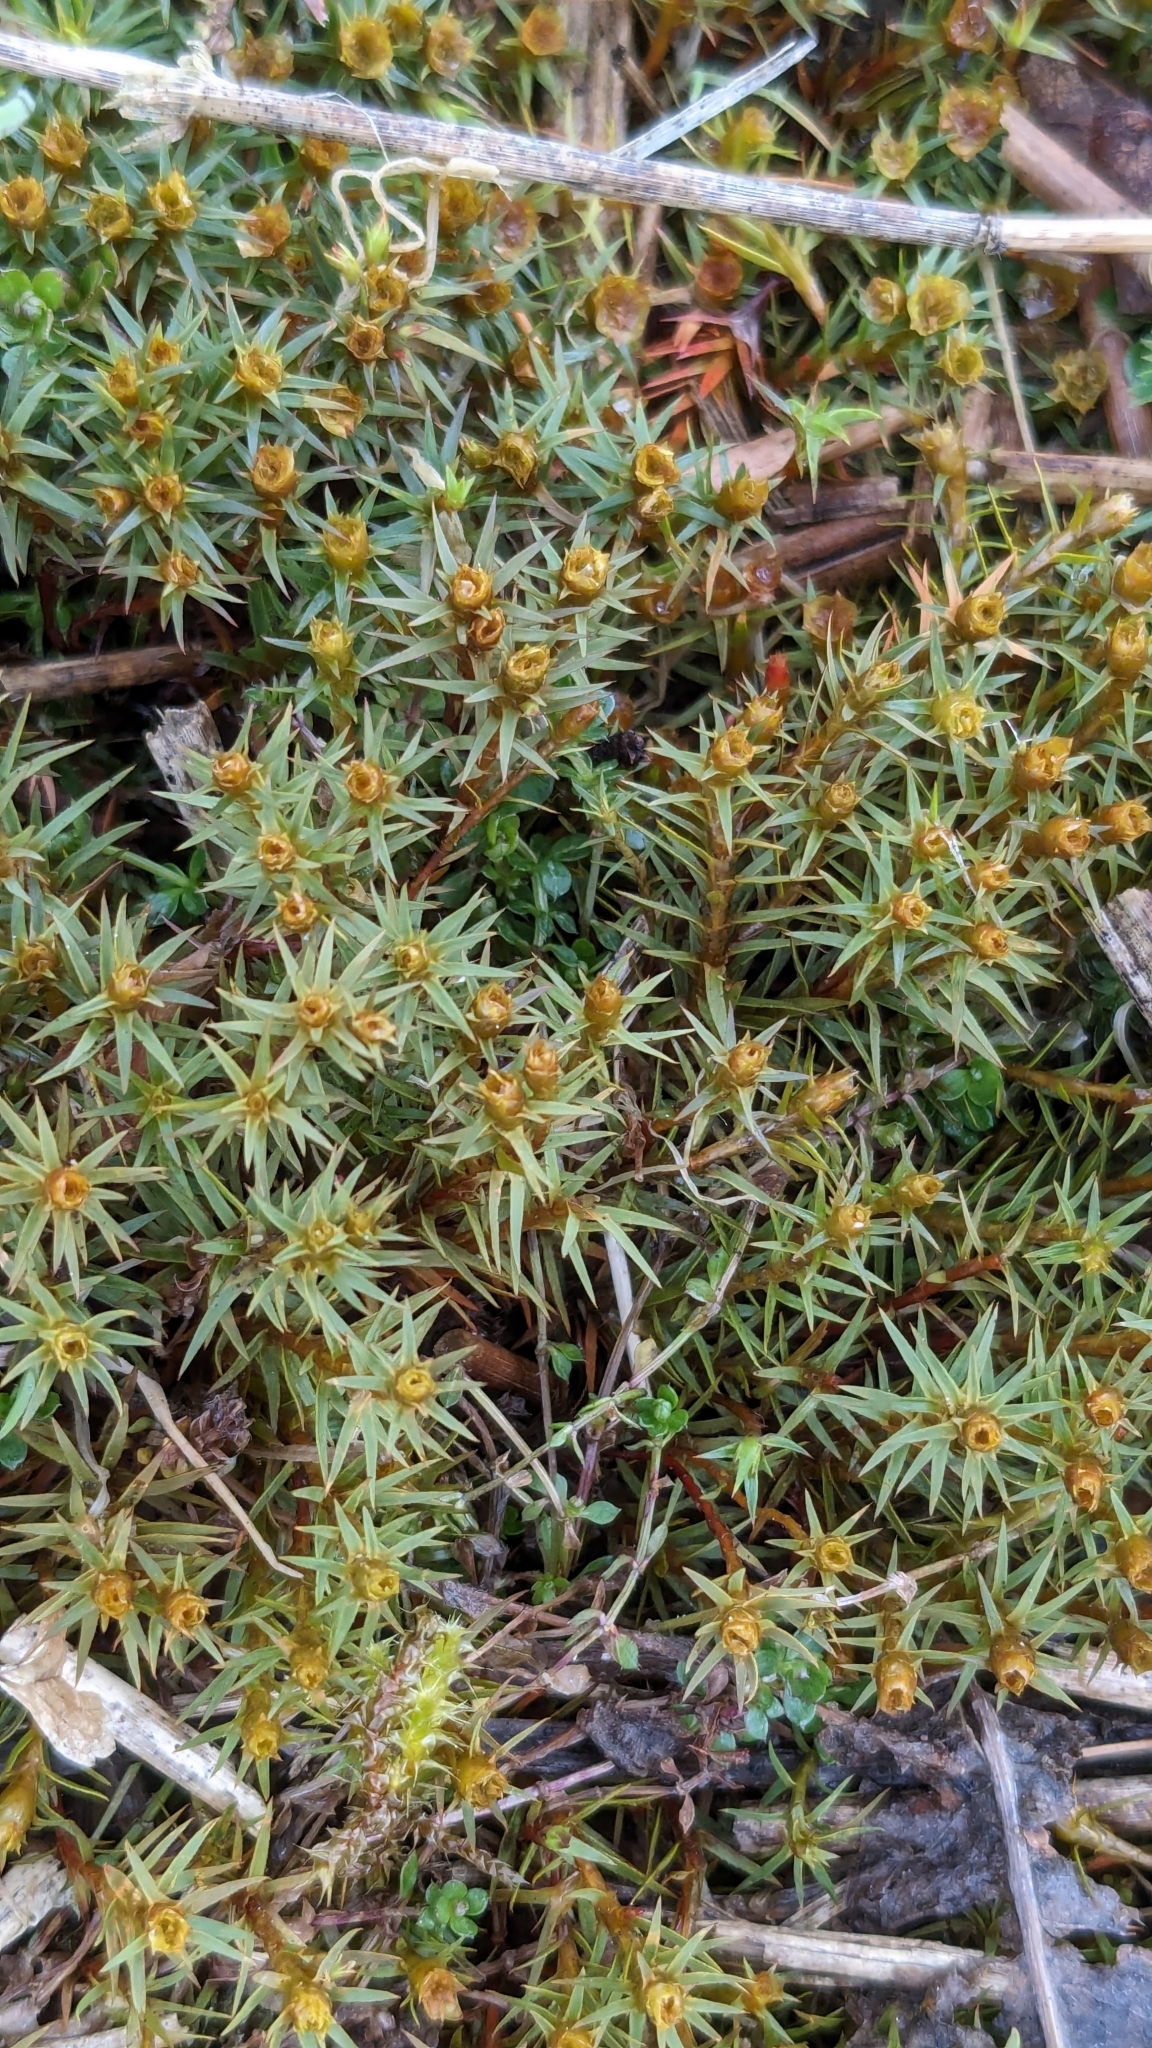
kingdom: Plantae
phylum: Bryophyta
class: Polytrichopsida
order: Polytrichales
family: Polytrichaceae
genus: Pogonatum
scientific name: Pogonatum urnigerum
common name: Urn hair moss
